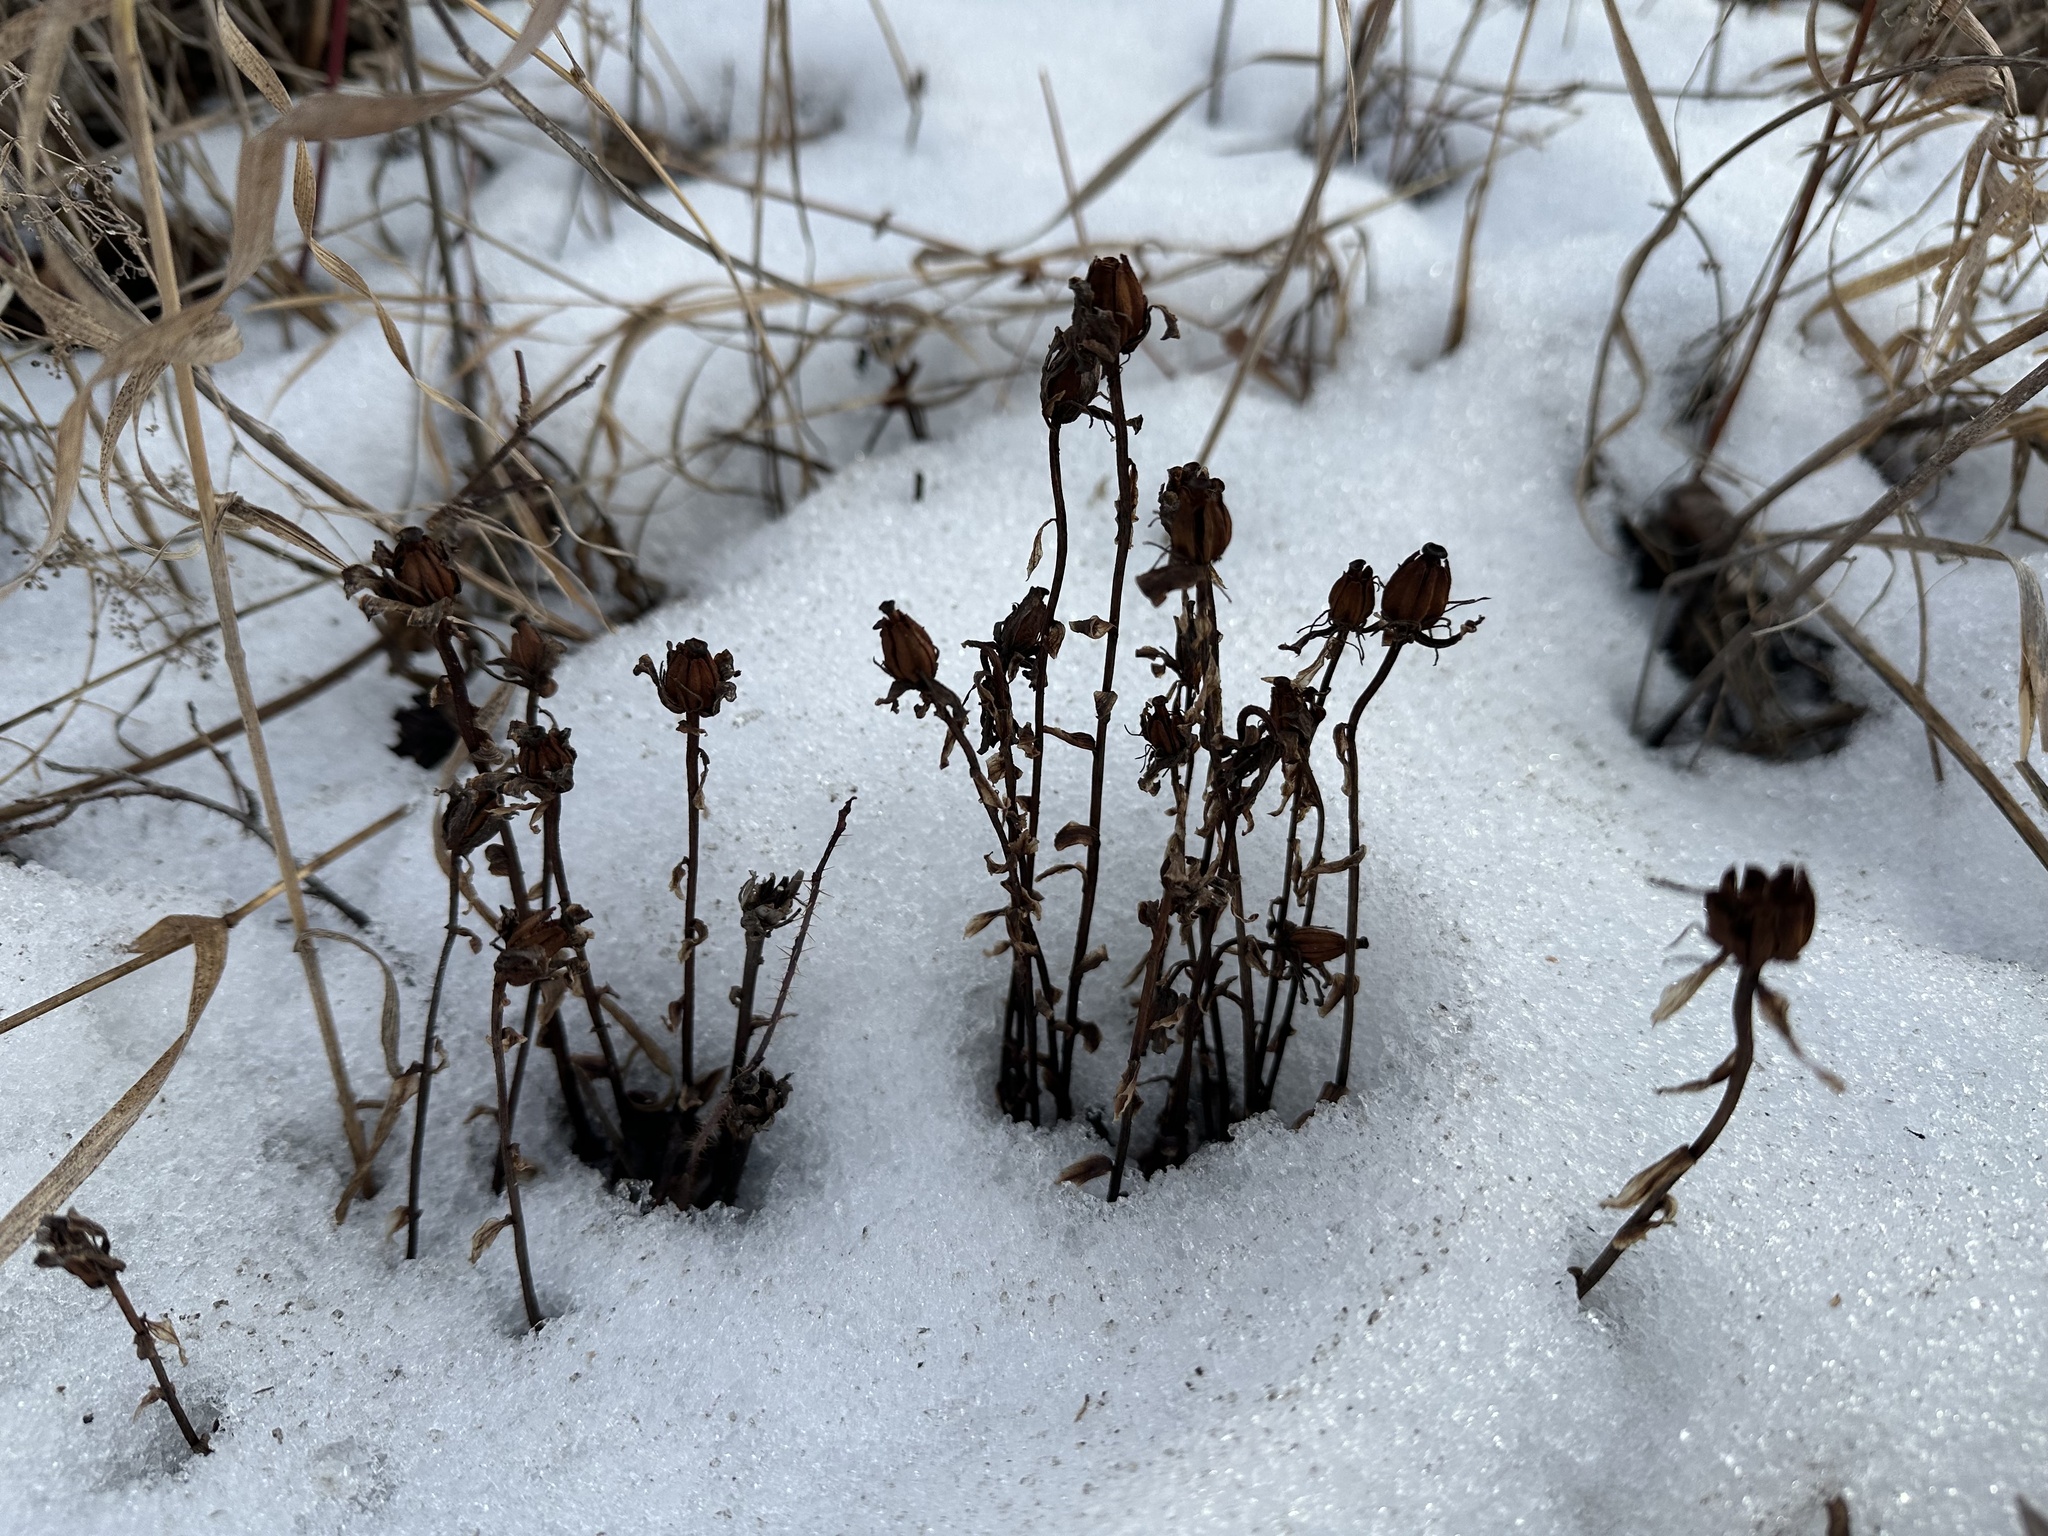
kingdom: Plantae
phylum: Tracheophyta
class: Magnoliopsida
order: Ericales
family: Ericaceae
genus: Monotropa
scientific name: Monotropa uniflora
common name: Convulsion root
